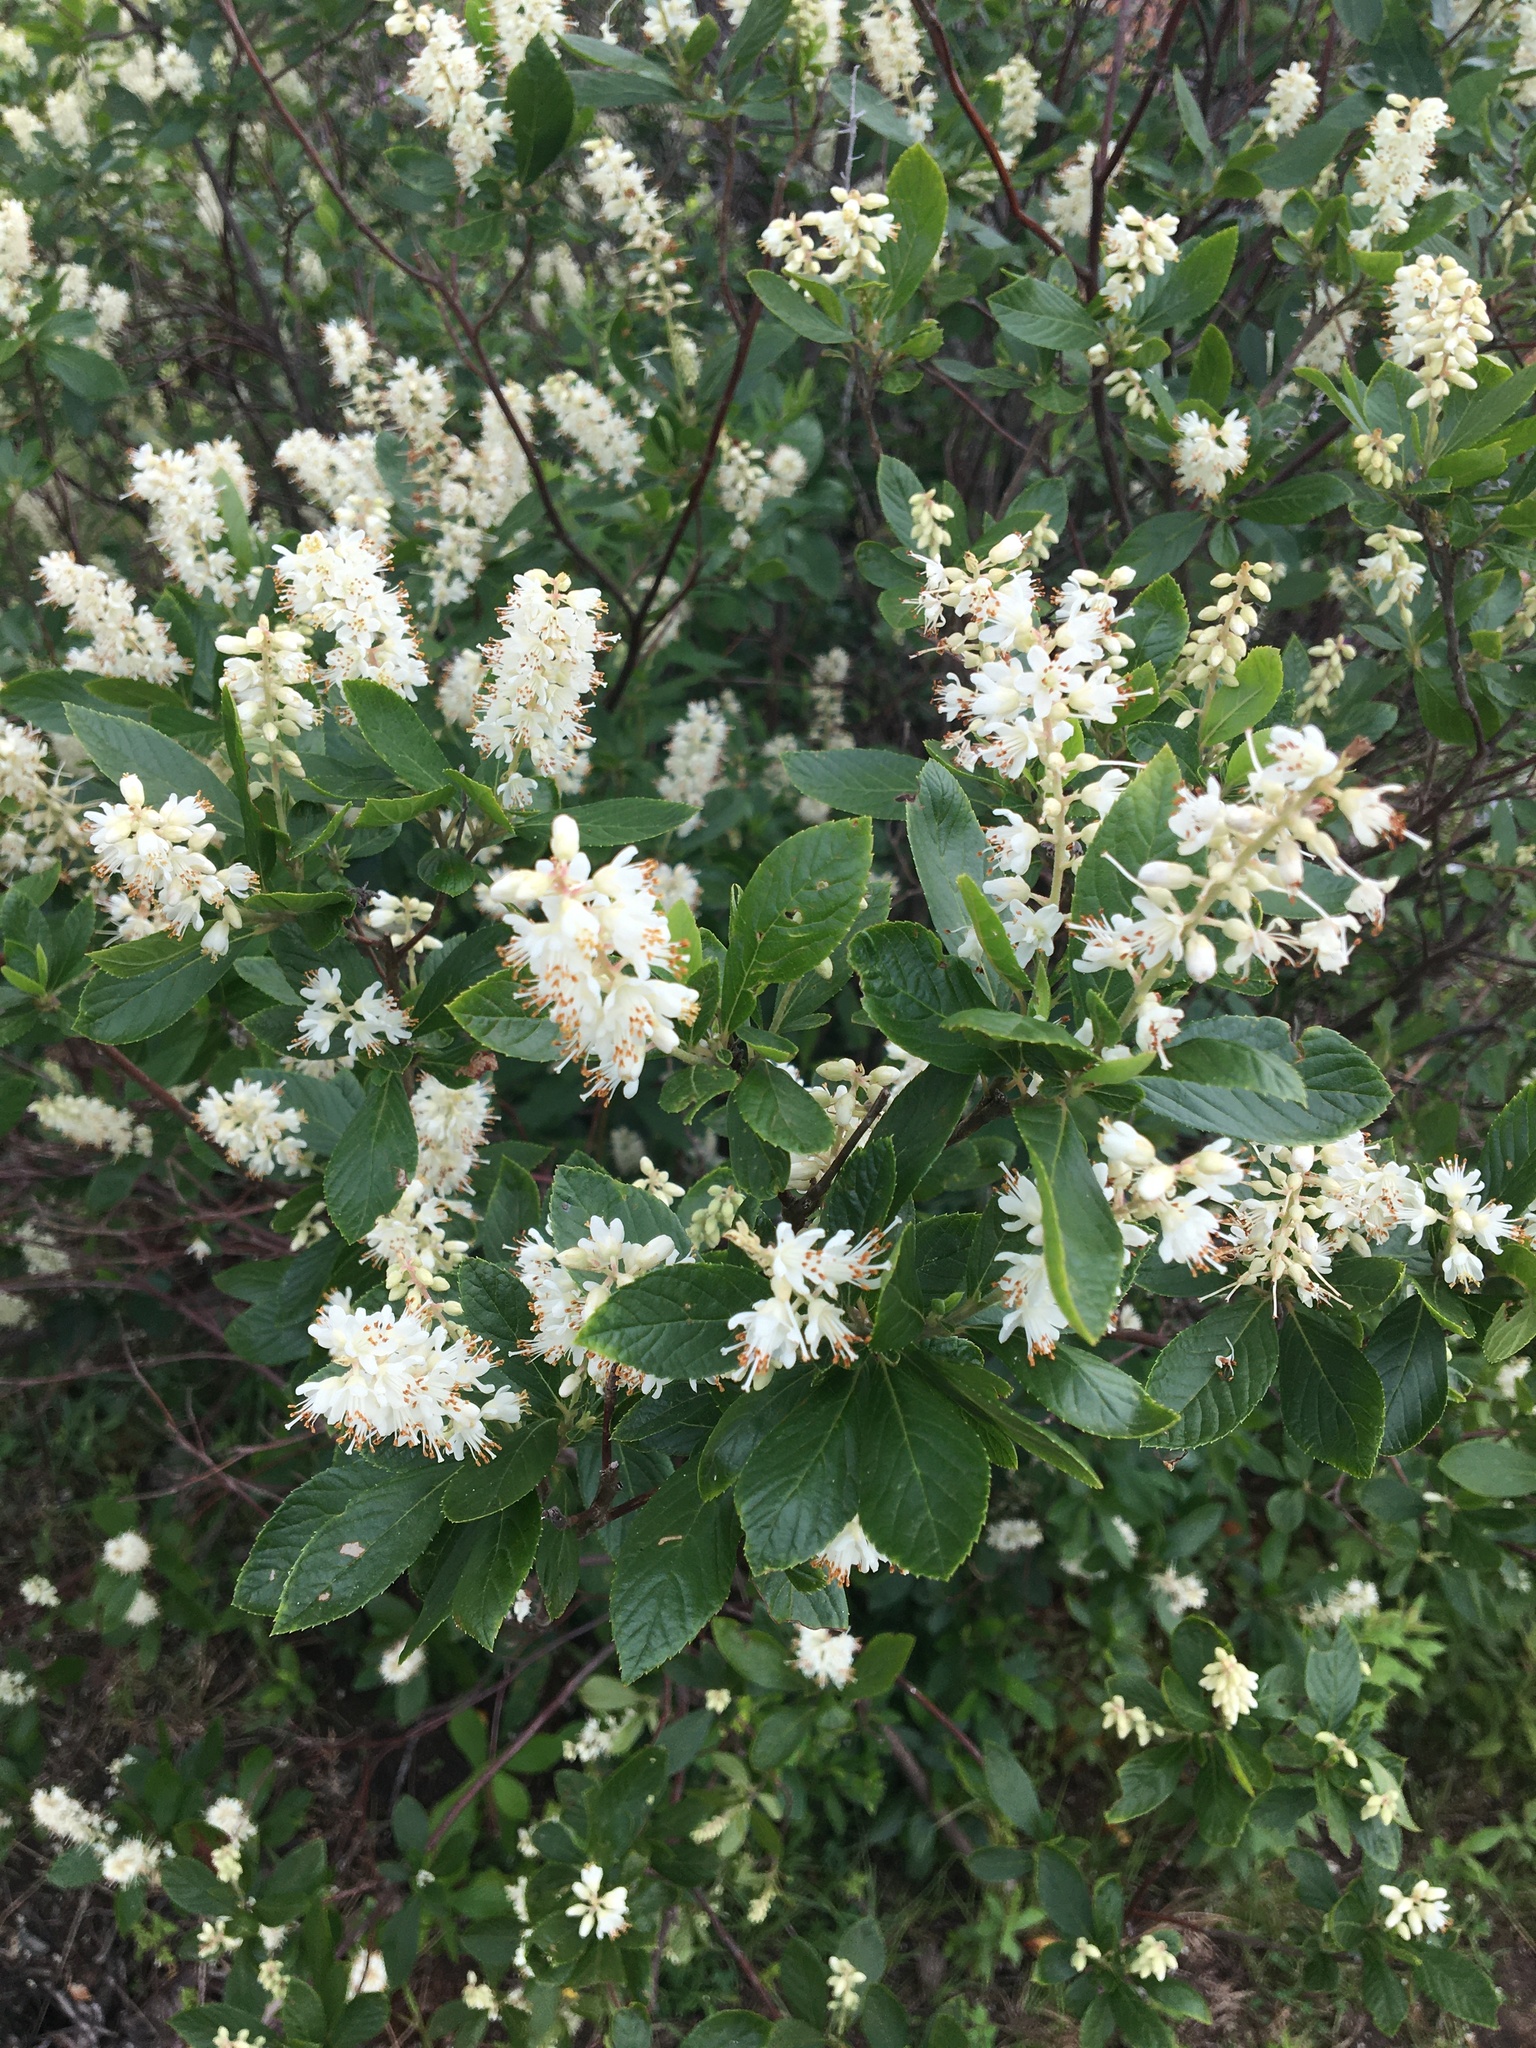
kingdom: Plantae
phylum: Tracheophyta
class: Magnoliopsida
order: Ericales
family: Clethraceae
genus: Clethra
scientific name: Clethra alnifolia
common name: Sweet pepperbush
